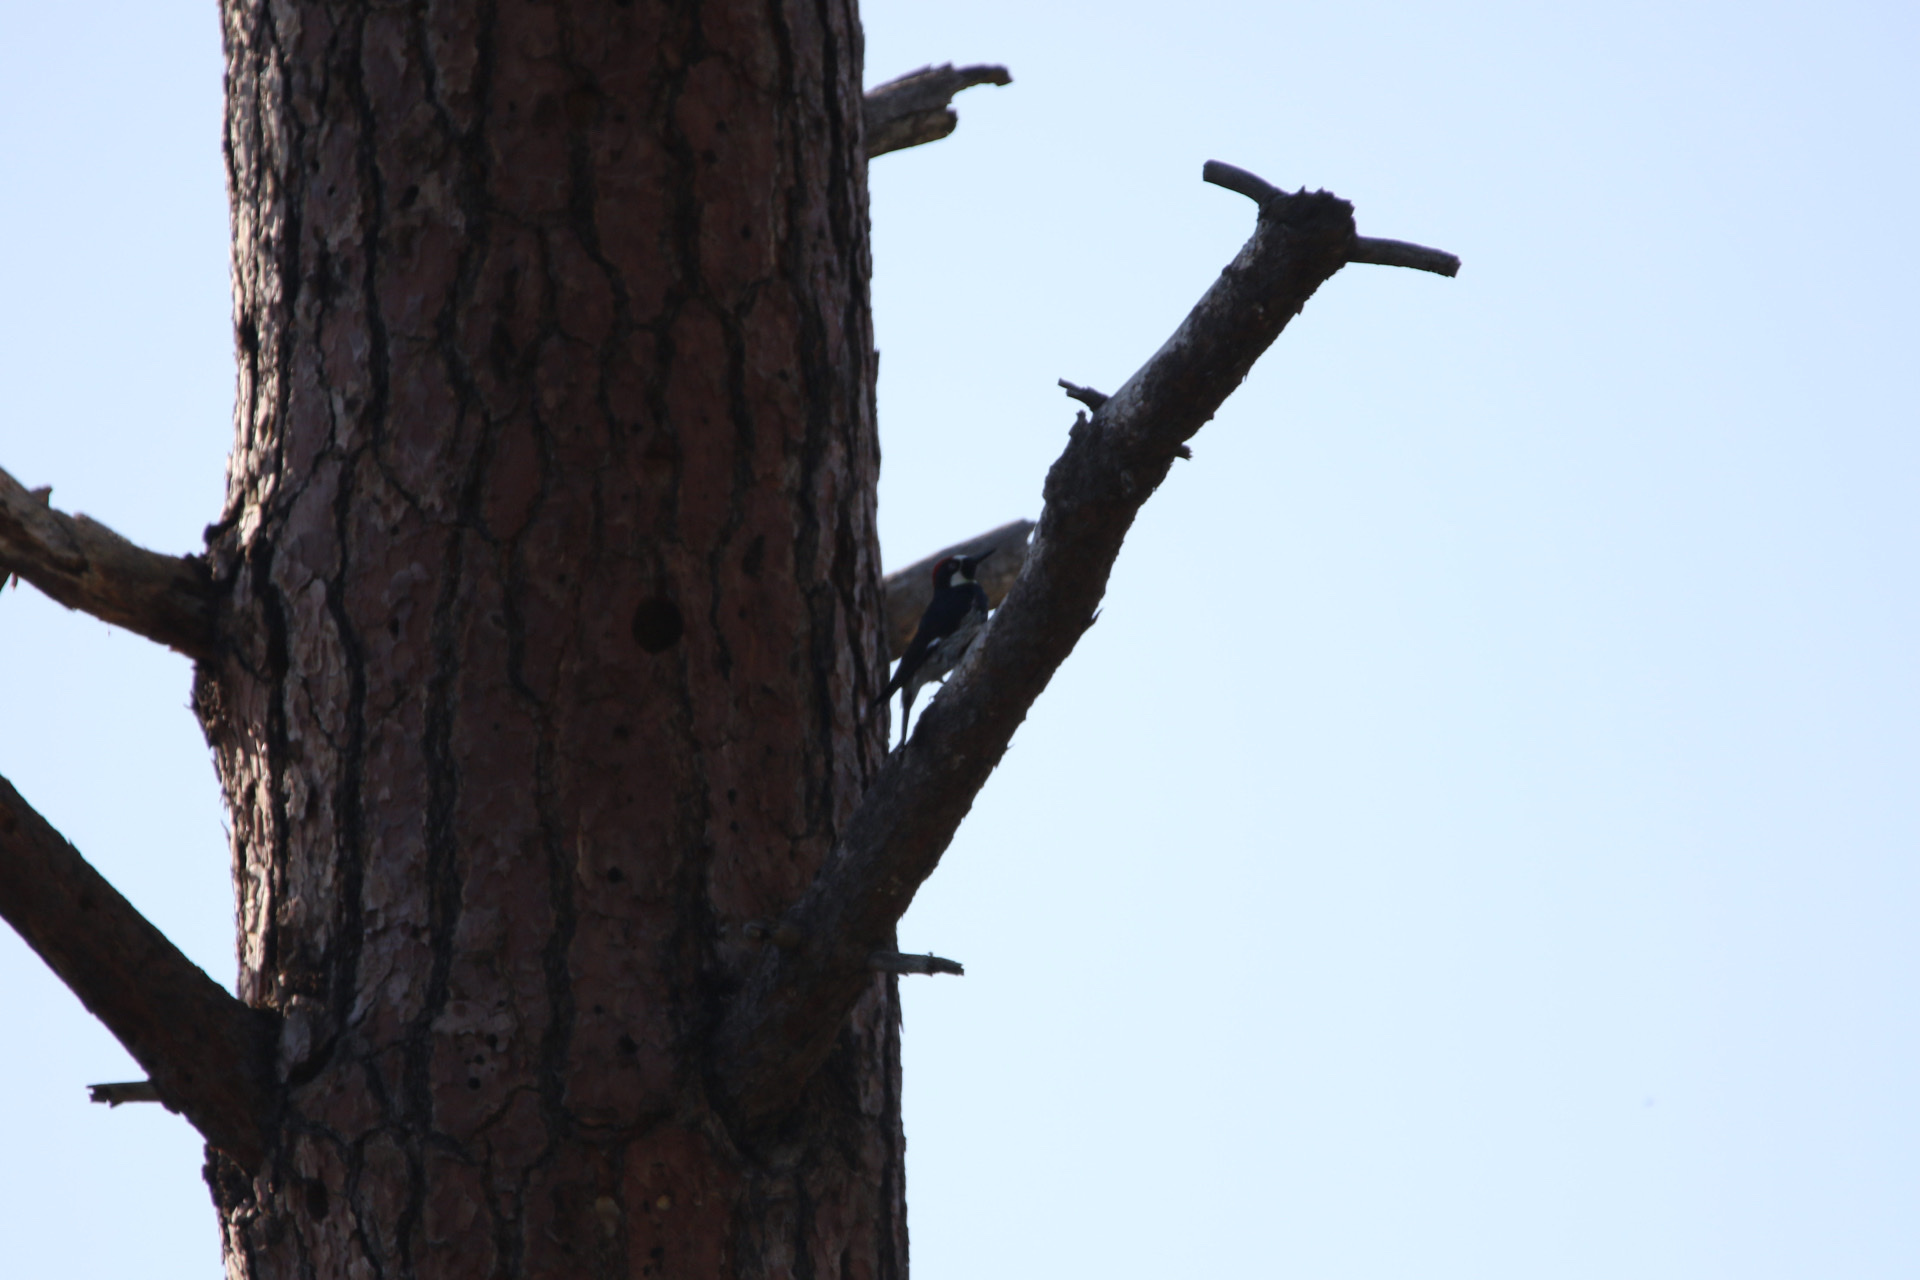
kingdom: Animalia
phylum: Chordata
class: Aves
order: Piciformes
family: Picidae
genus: Melanerpes
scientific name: Melanerpes formicivorus
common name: Acorn woodpecker
